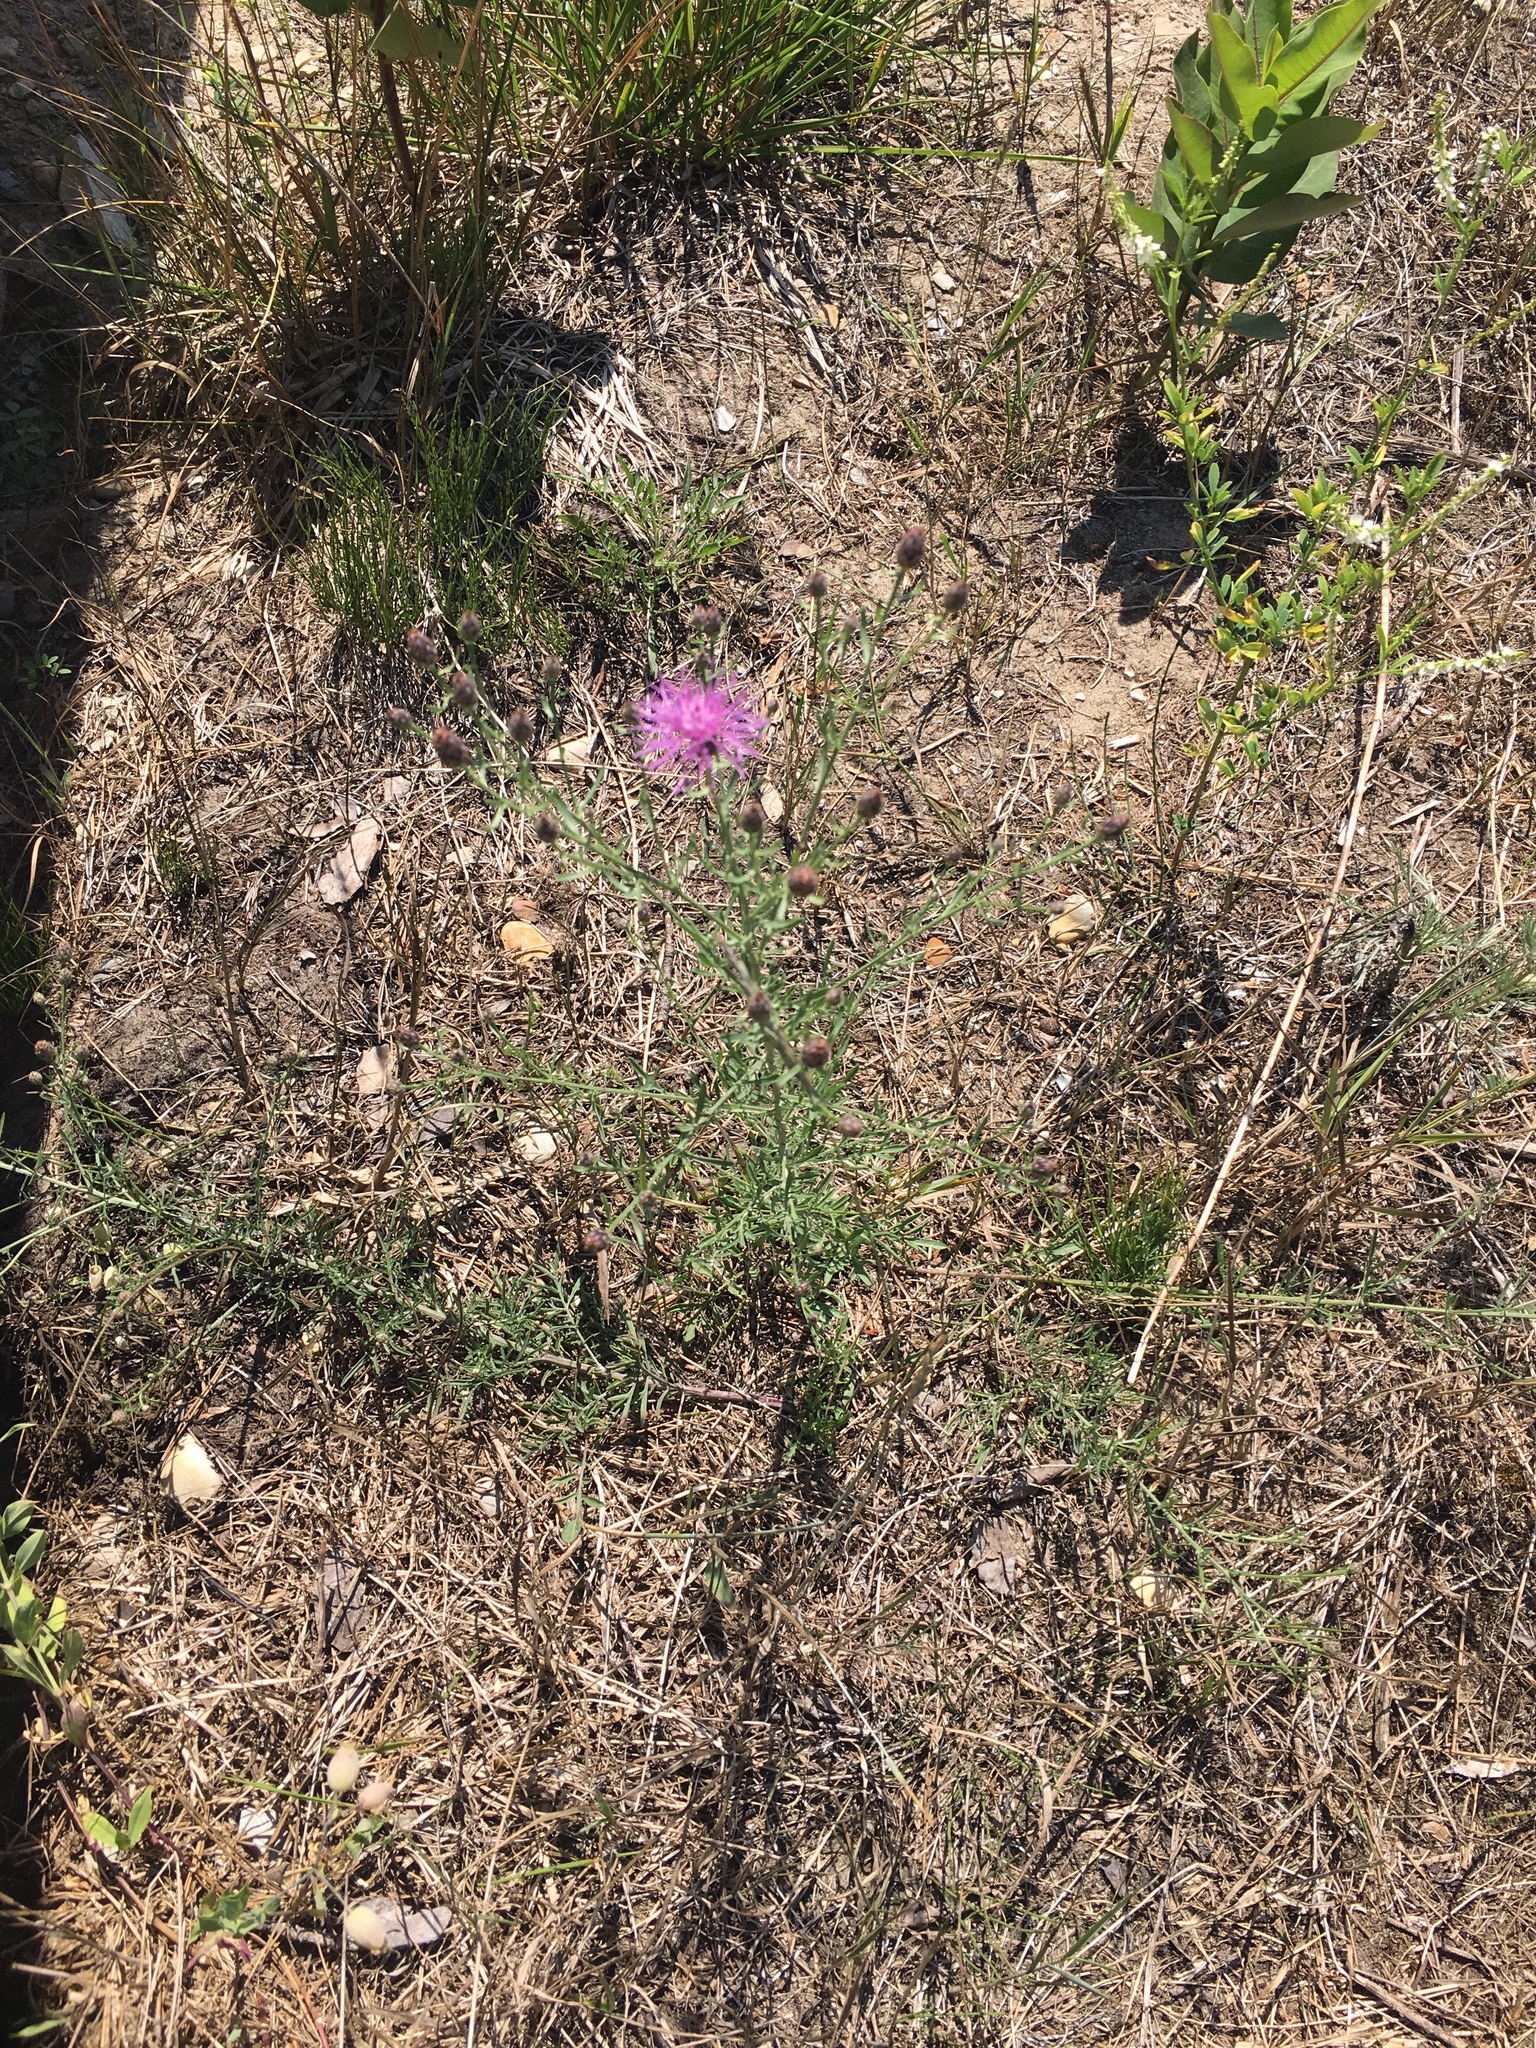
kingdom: Plantae
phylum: Tracheophyta
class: Magnoliopsida
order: Asterales
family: Asteraceae
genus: Centaurea
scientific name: Centaurea stoebe
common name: Spotted knapweed
